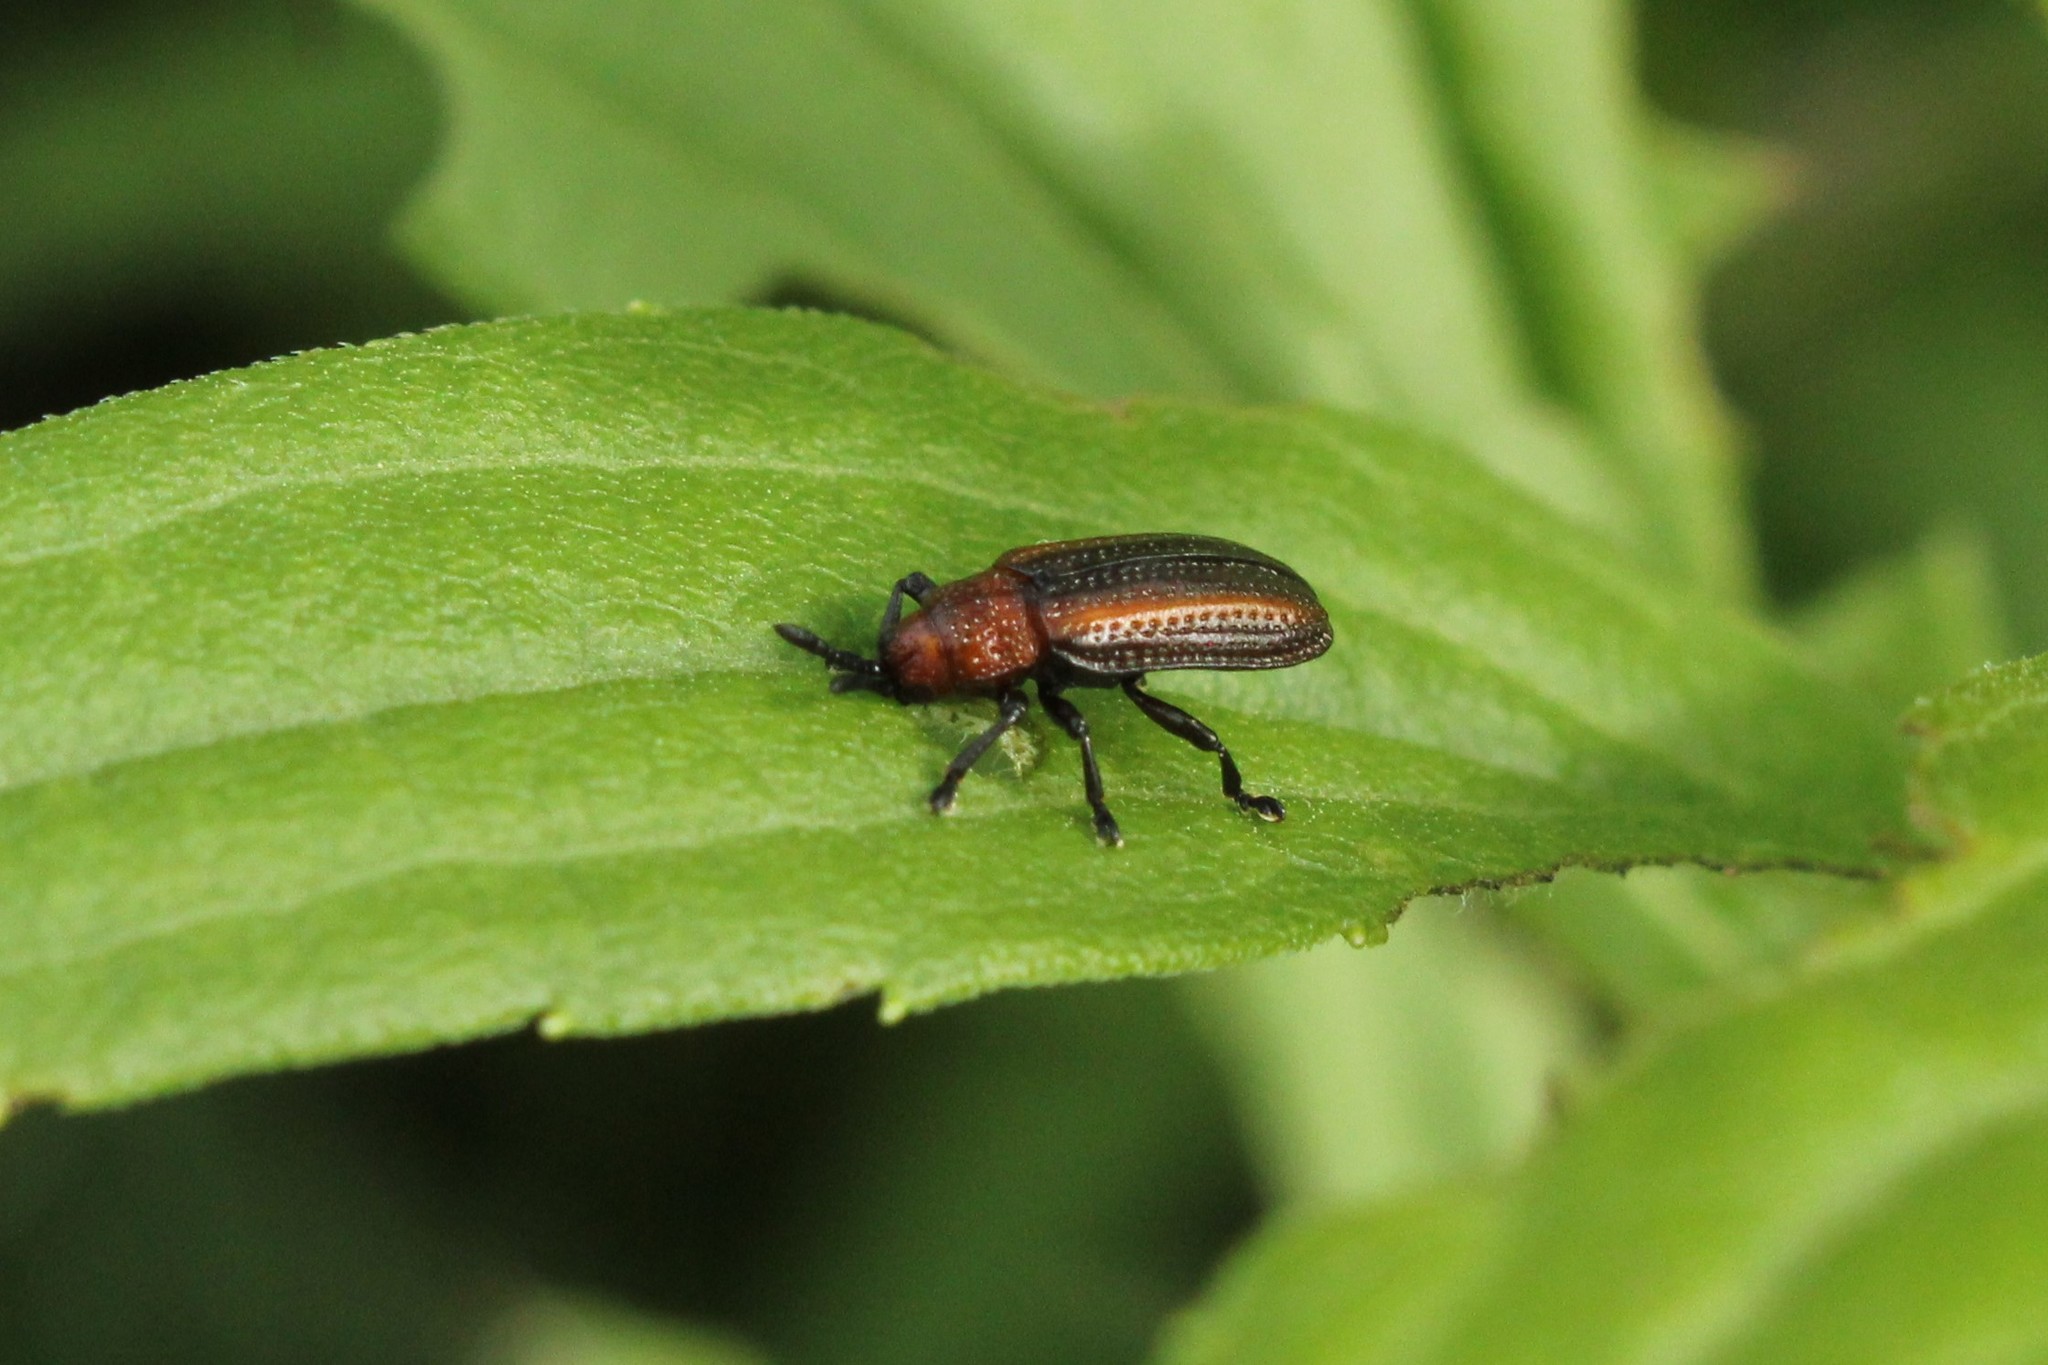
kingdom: Animalia
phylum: Arthropoda
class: Insecta
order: Coleoptera
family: Chrysomelidae
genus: Microrhopala
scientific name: Microrhopala vittata
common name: Goldenrod leaf miner beetle
